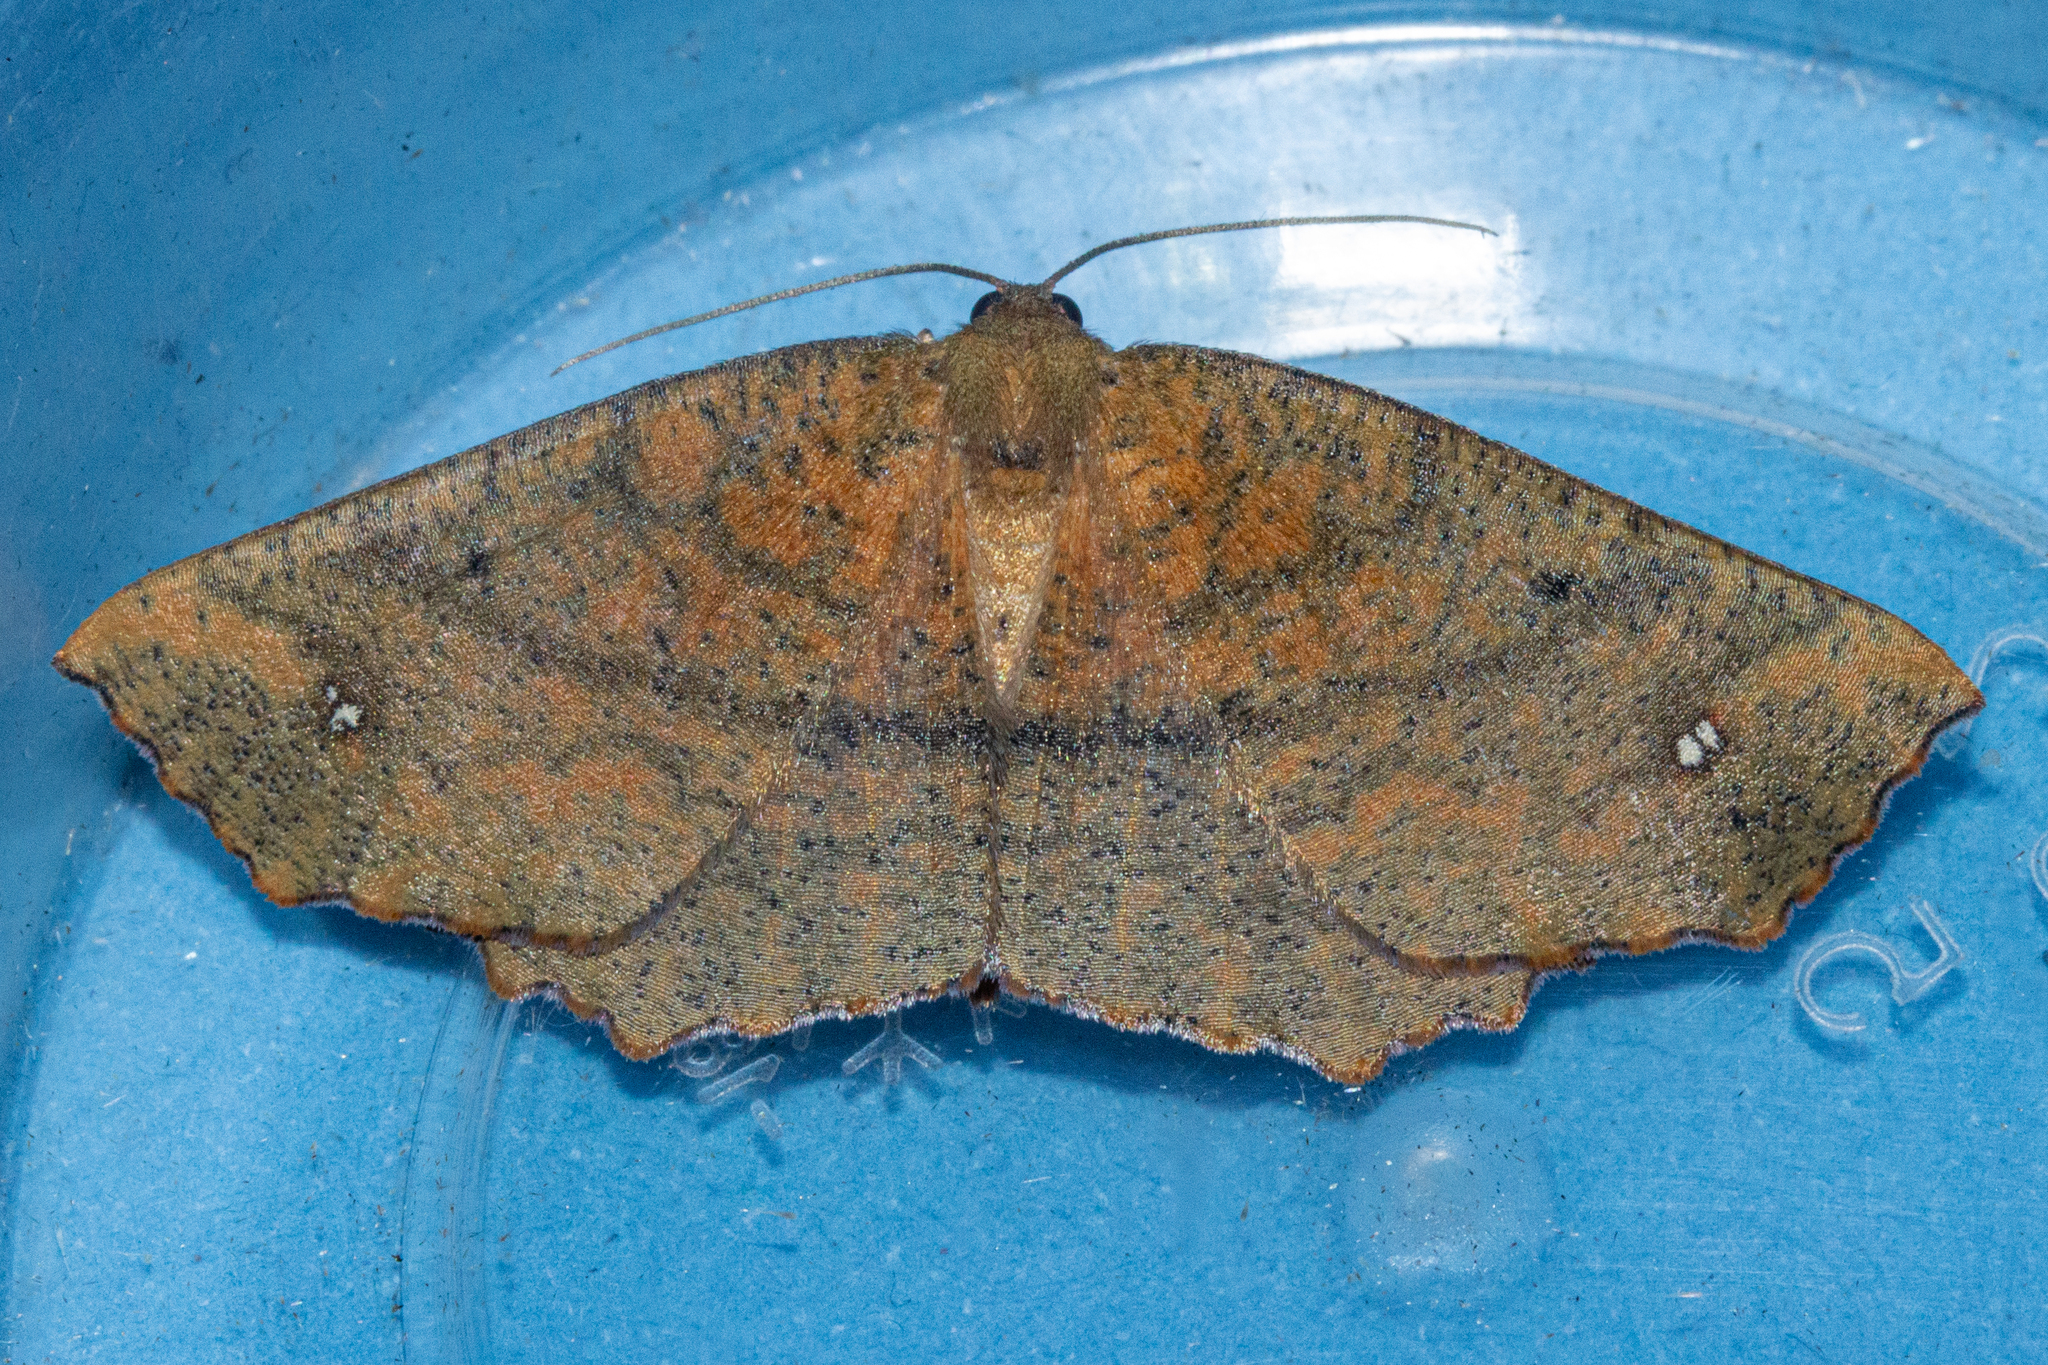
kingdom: Animalia
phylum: Arthropoda
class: Insecta
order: Lepidoptera
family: Geometridae
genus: Xyridacma
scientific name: Xyridacma ustaria
